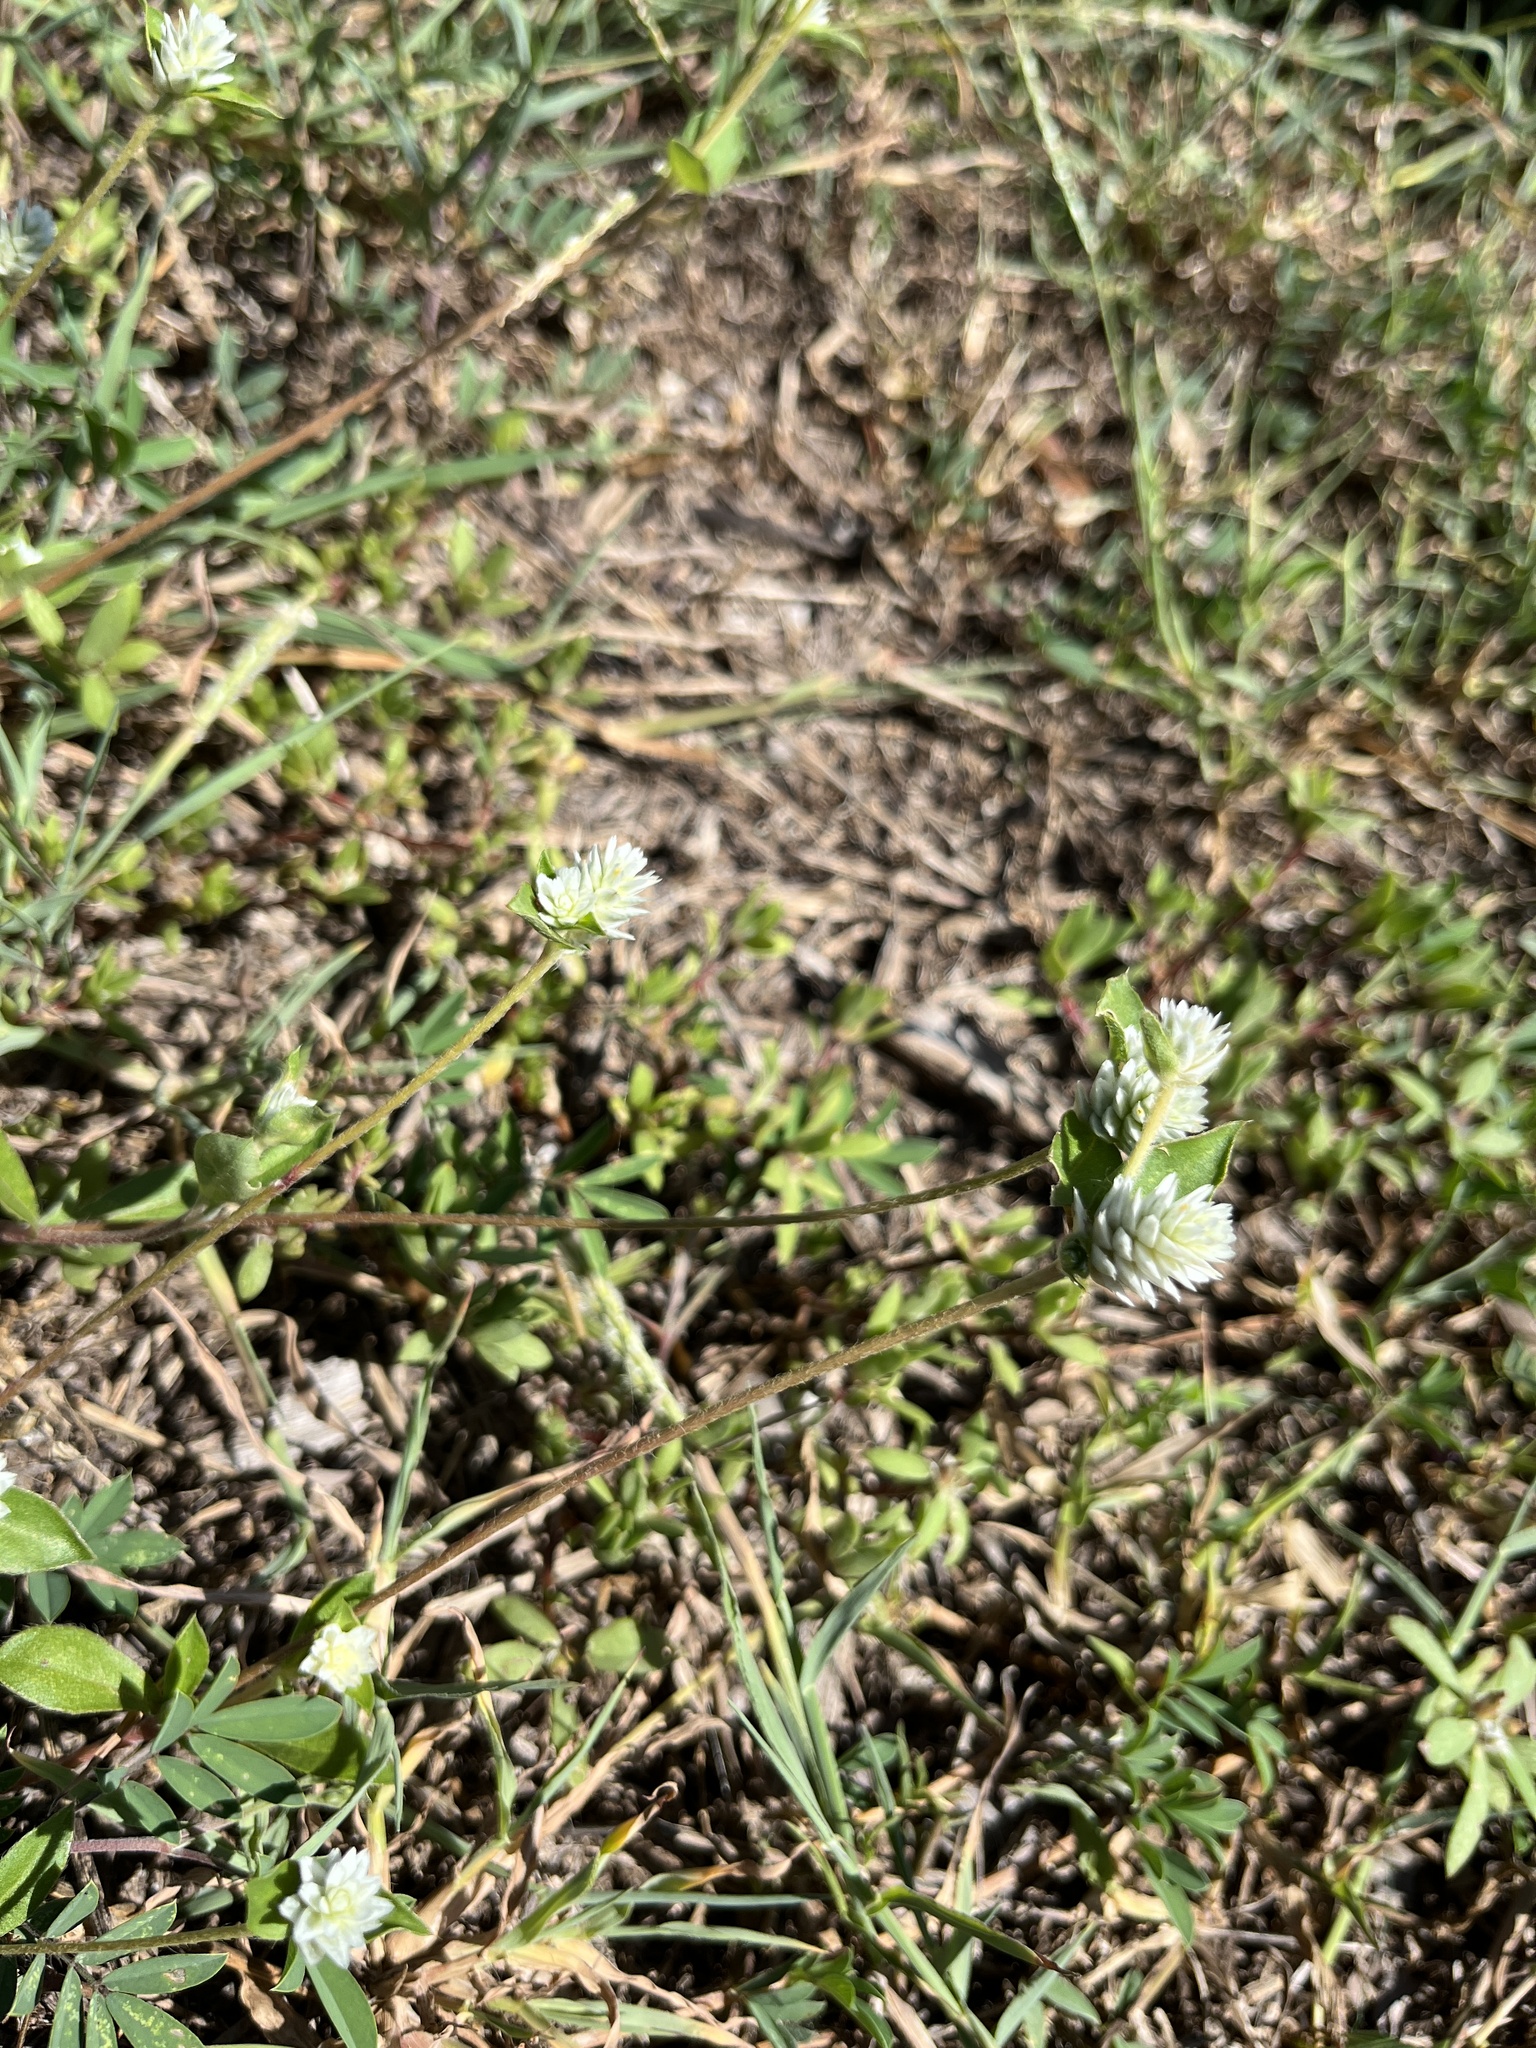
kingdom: Plantae
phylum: Tracheophyta
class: Magnoliopsida
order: Caryophyllales
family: Amaranthaceae
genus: Gomphrena
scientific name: Gomphrena serrata
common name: Arrasa con todo
